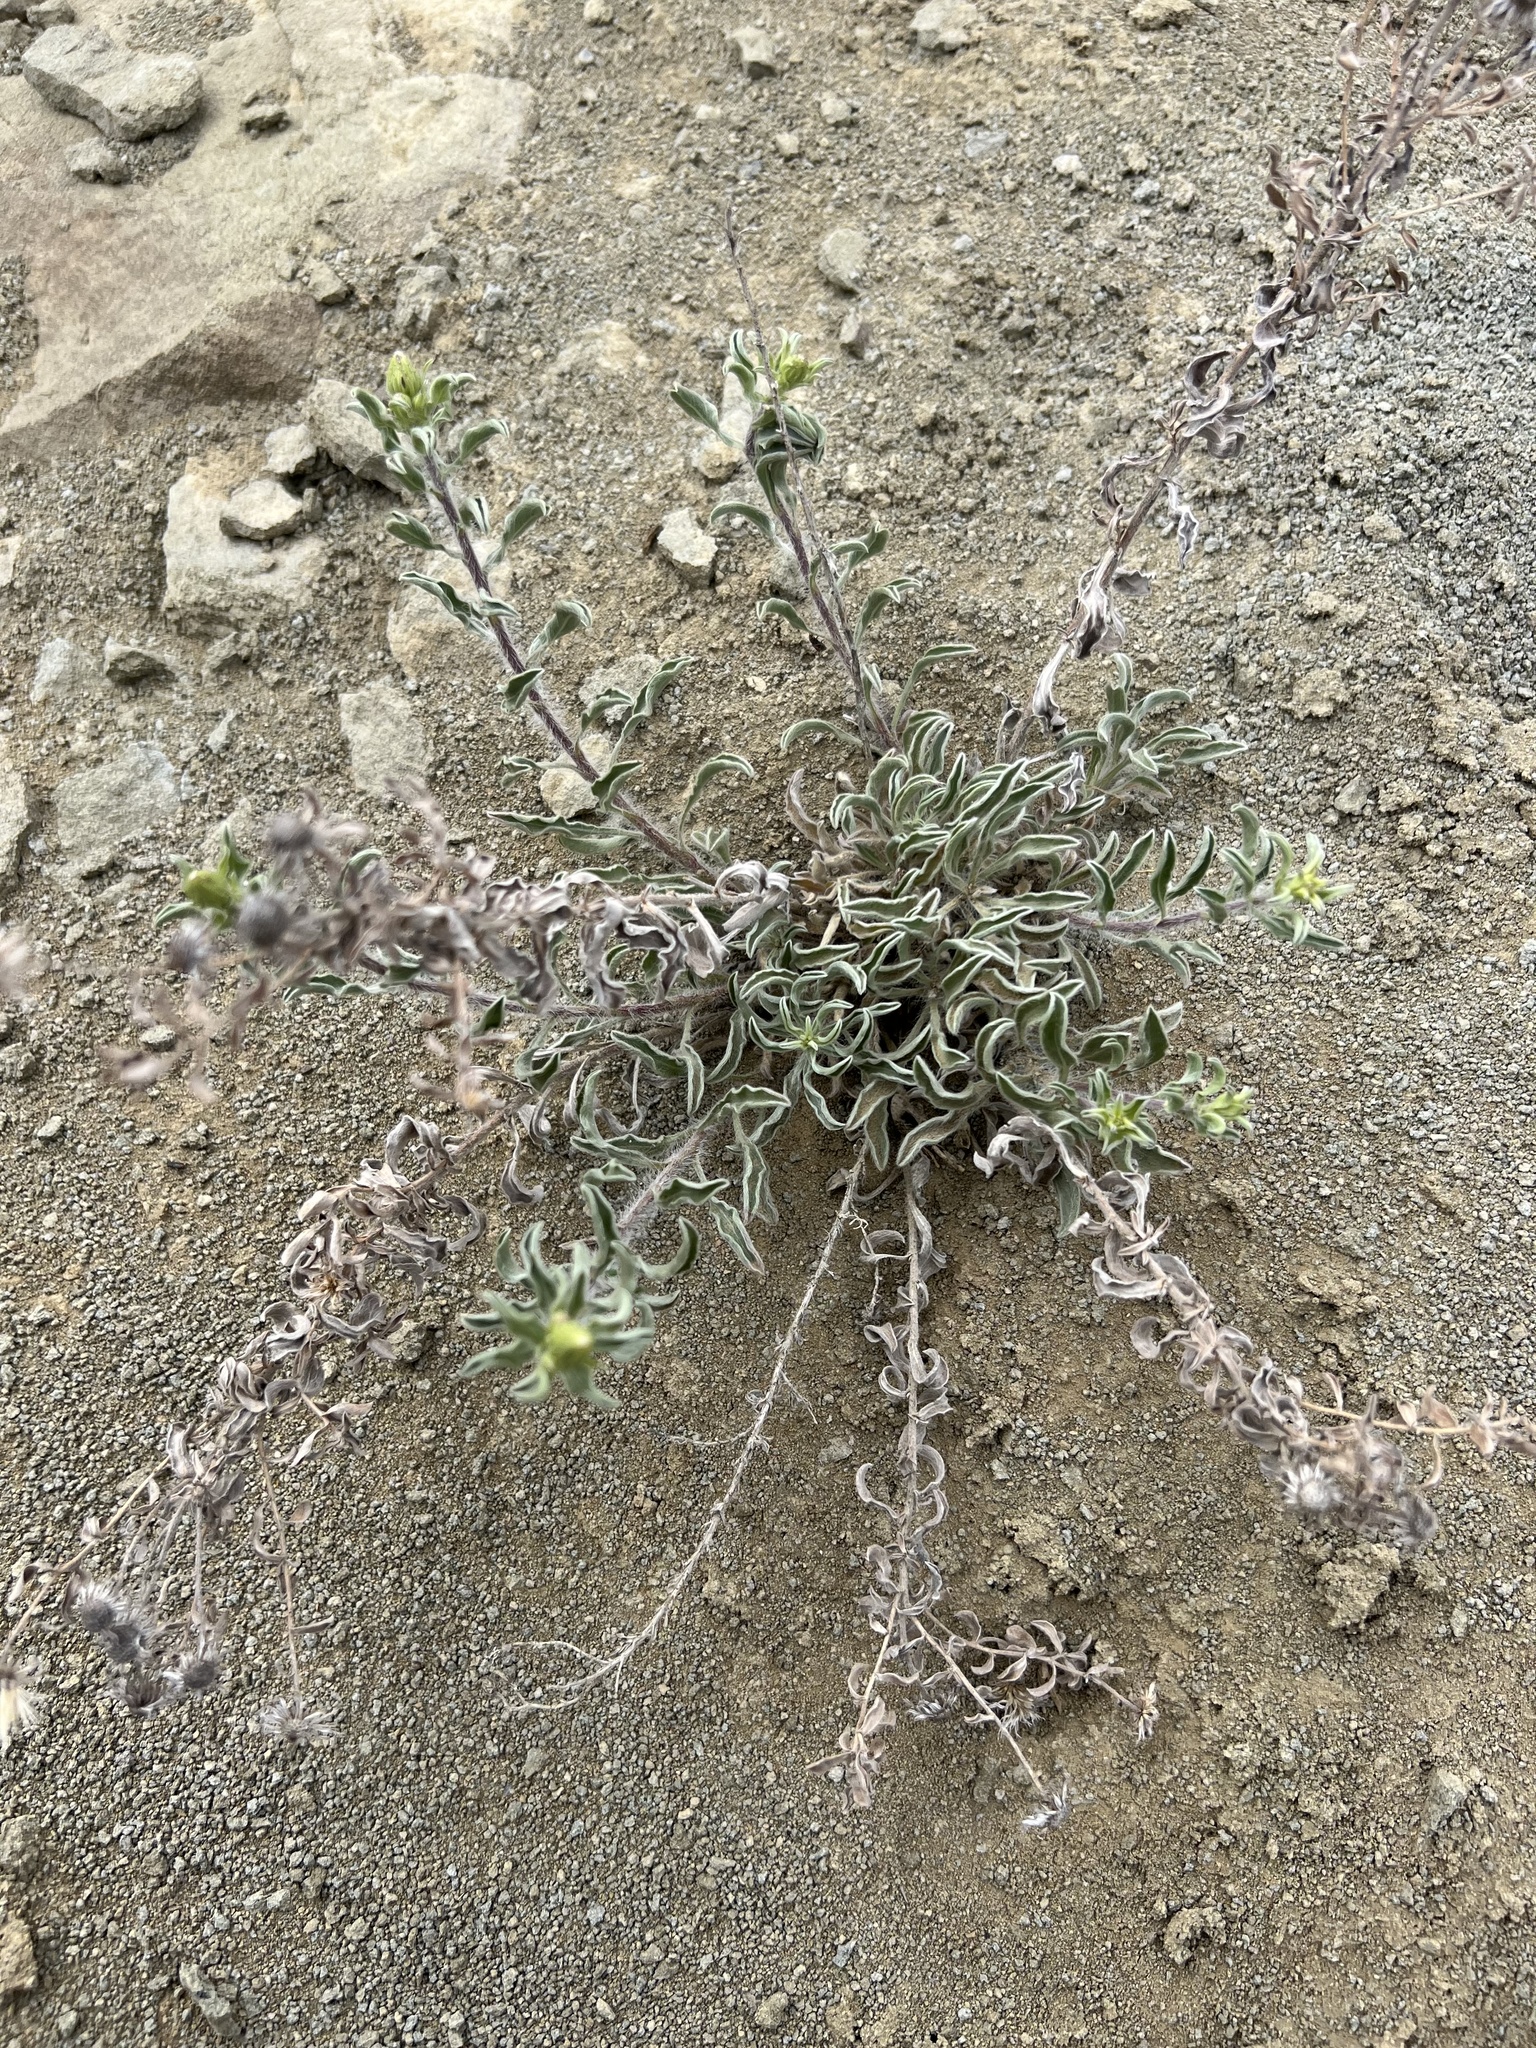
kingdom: Plantae
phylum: Tracheophyta
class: Magnoliopsida
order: Asterales
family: Asteraceae
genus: Heterotheca
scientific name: Heterotheca hirsutissima
